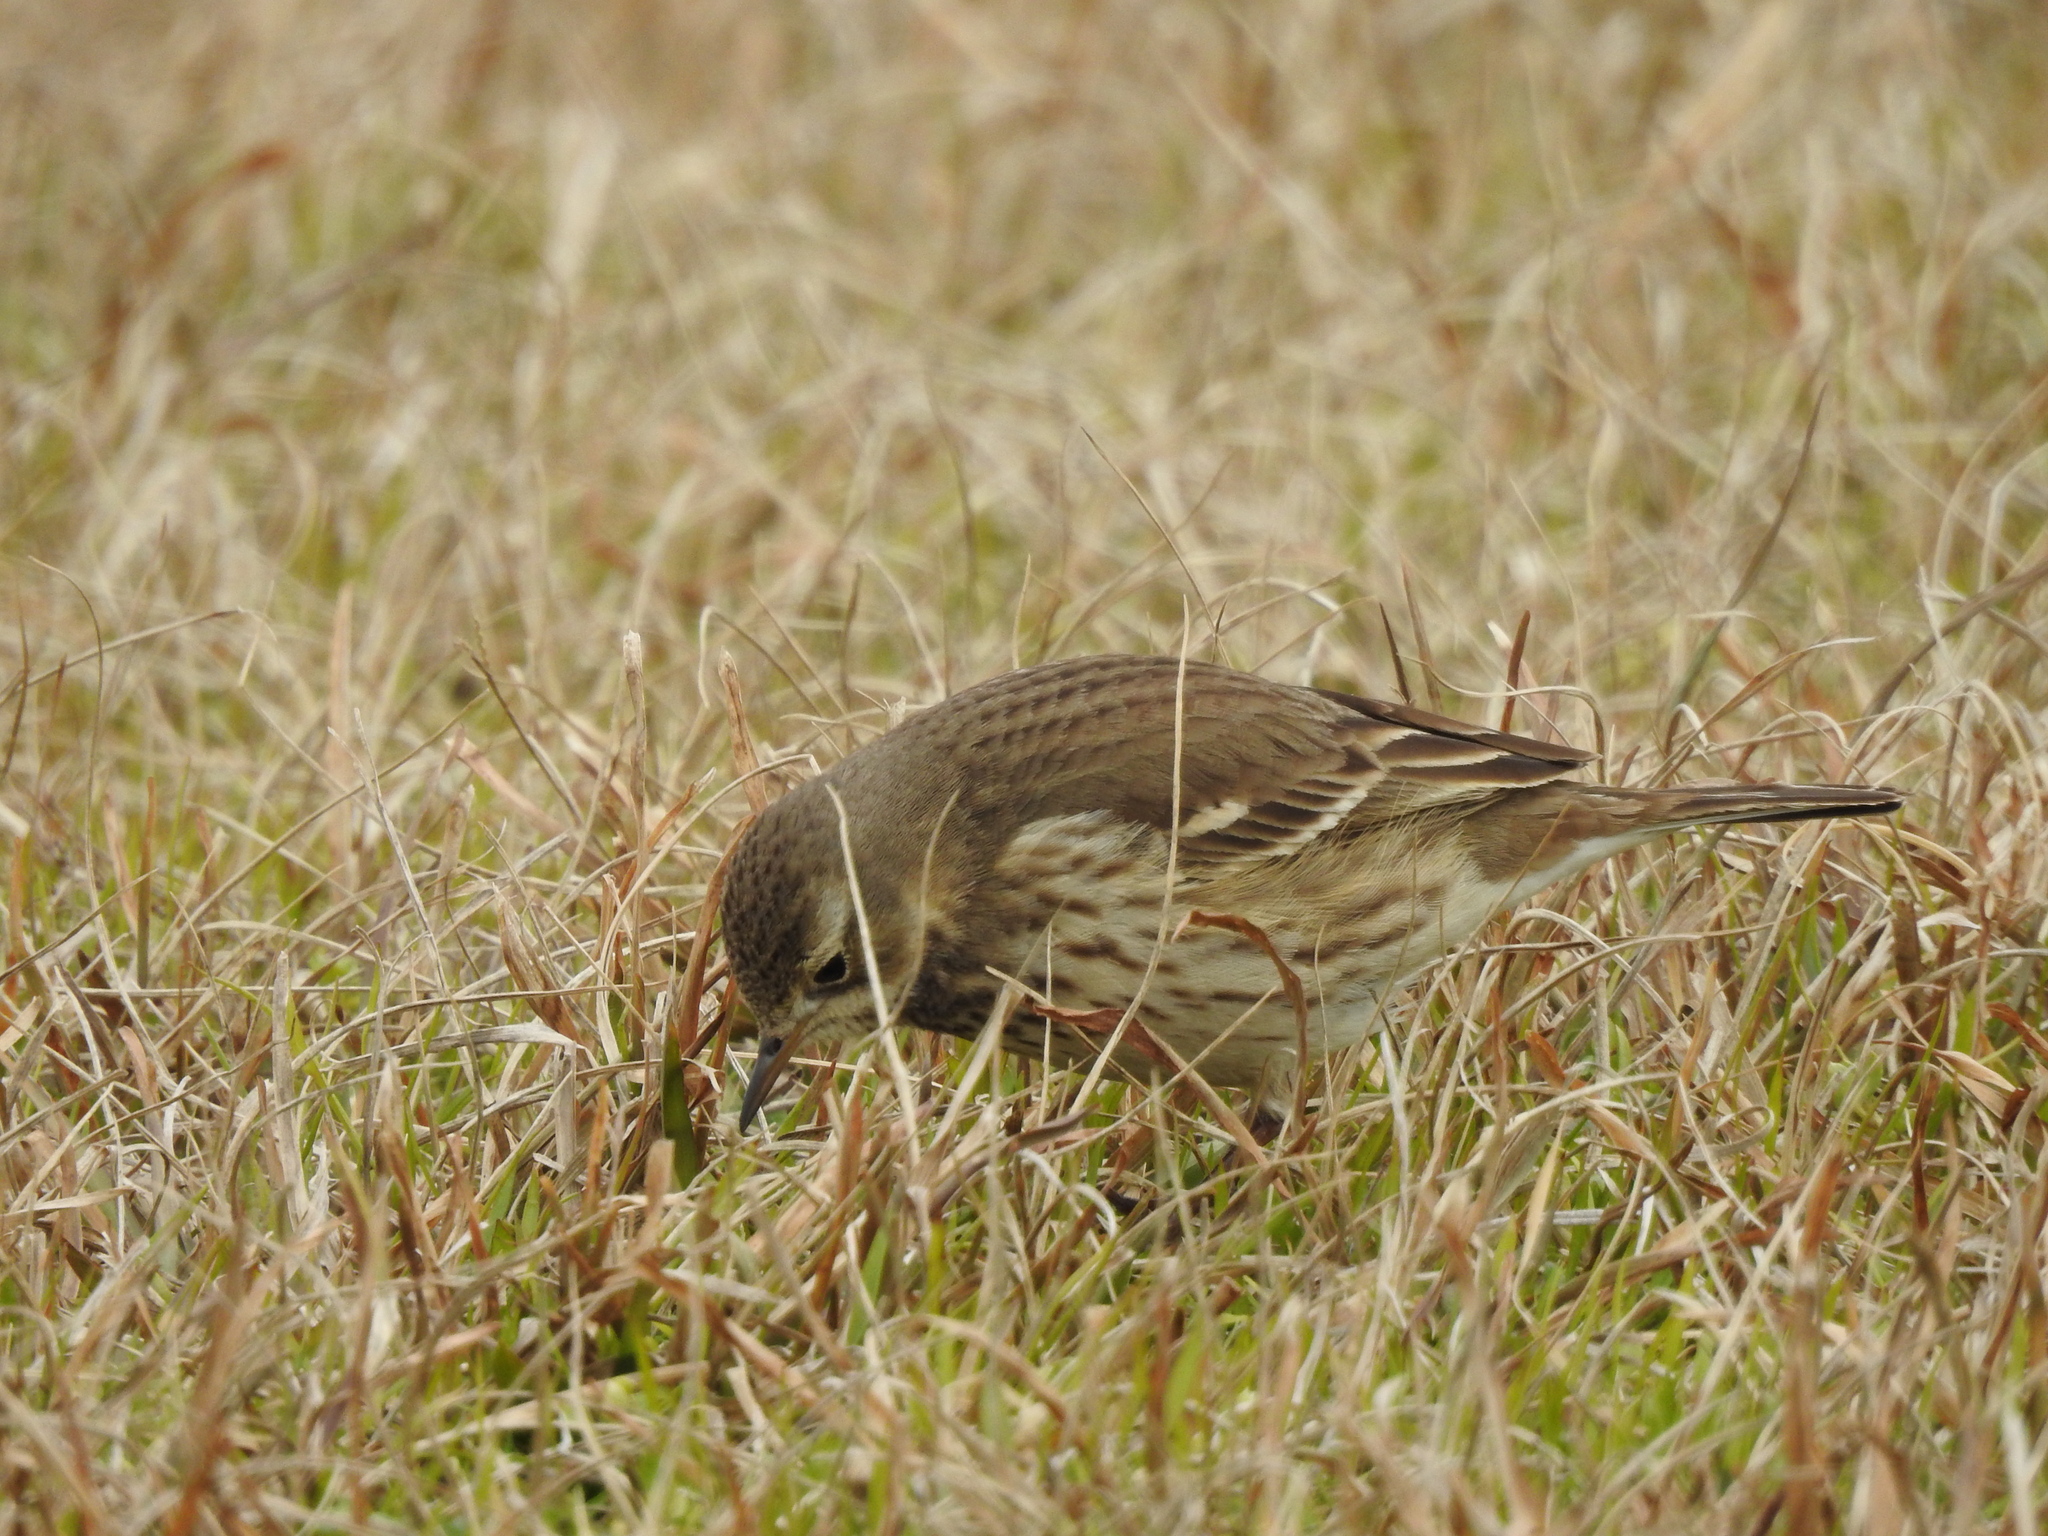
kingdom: Animalia
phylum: Chordata
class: Aves
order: Passeriformes
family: Motacillidae
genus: Anthus
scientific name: Anthus rubescens
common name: Buff-bellied pipit
